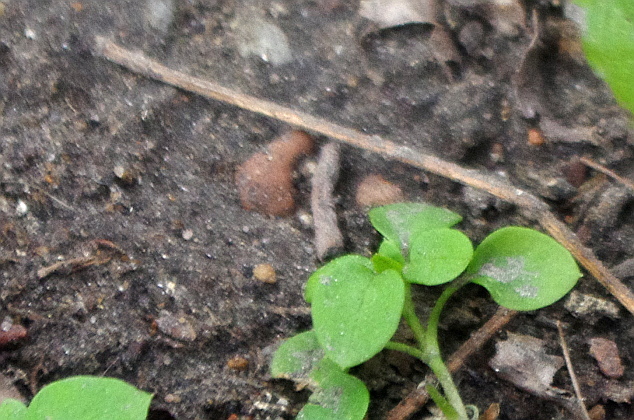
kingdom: Plantae
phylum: Tracheophyta
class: Magnoliopsida
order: Caryophyllales
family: Caryophyllaceae
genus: Stellaria
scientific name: Stellaria media
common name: Common chickweed
